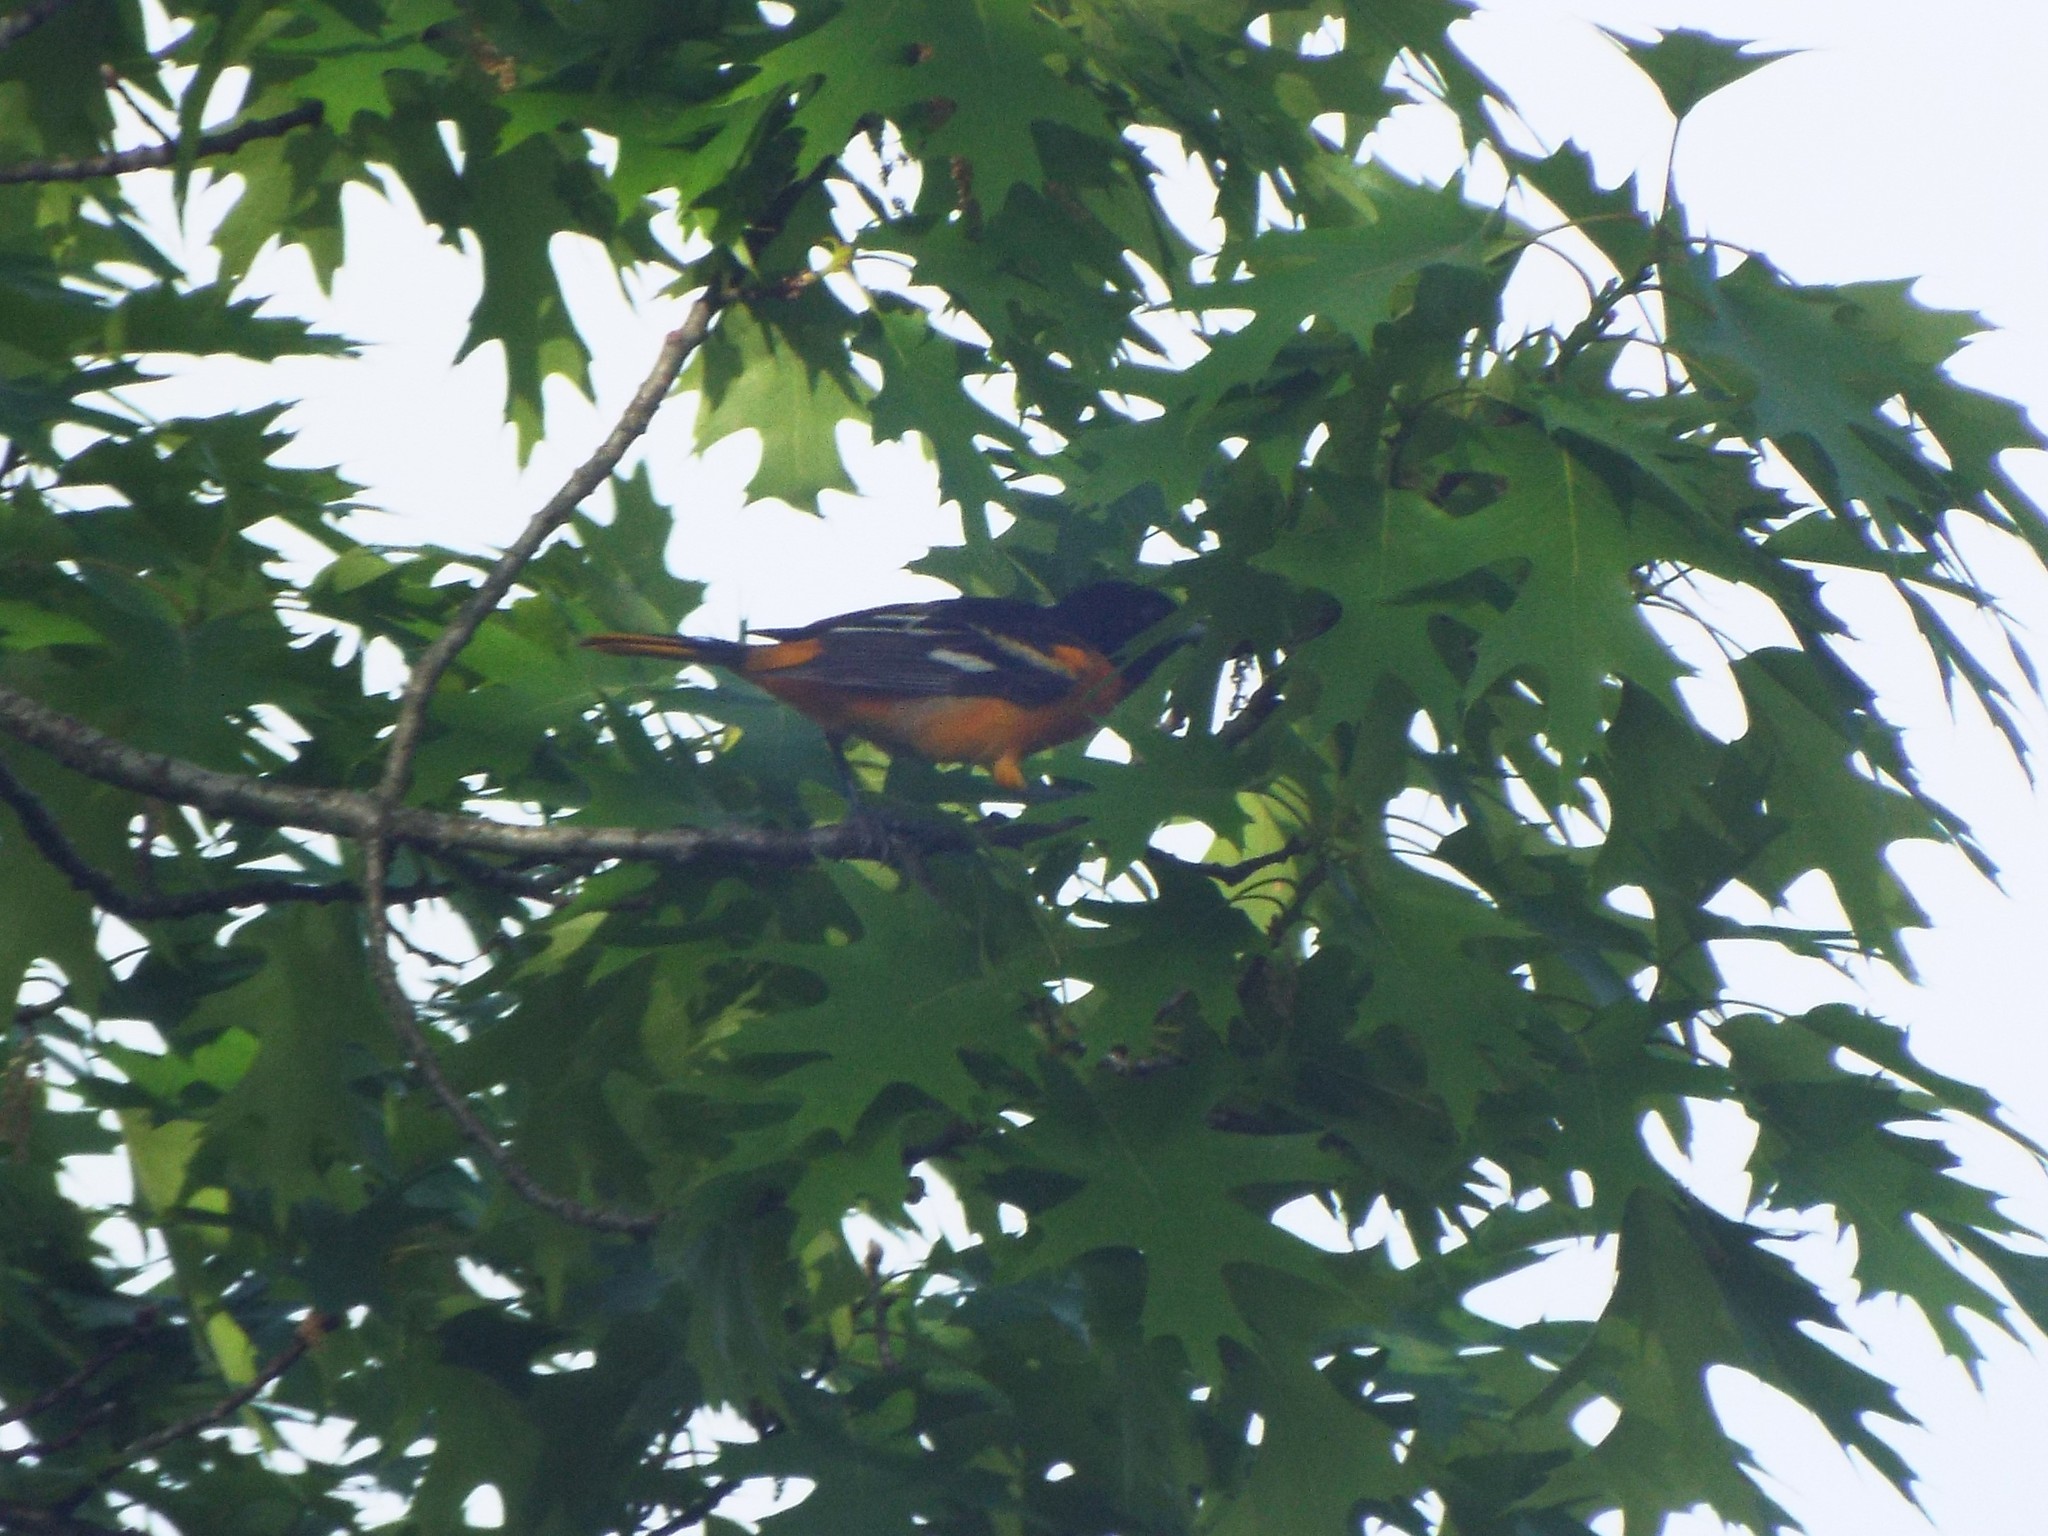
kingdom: Animalia
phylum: Chordata
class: Aves
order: Passeriformes
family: Icteridae
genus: Icterus
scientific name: Icterus galbula
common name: Baltimore oriole
